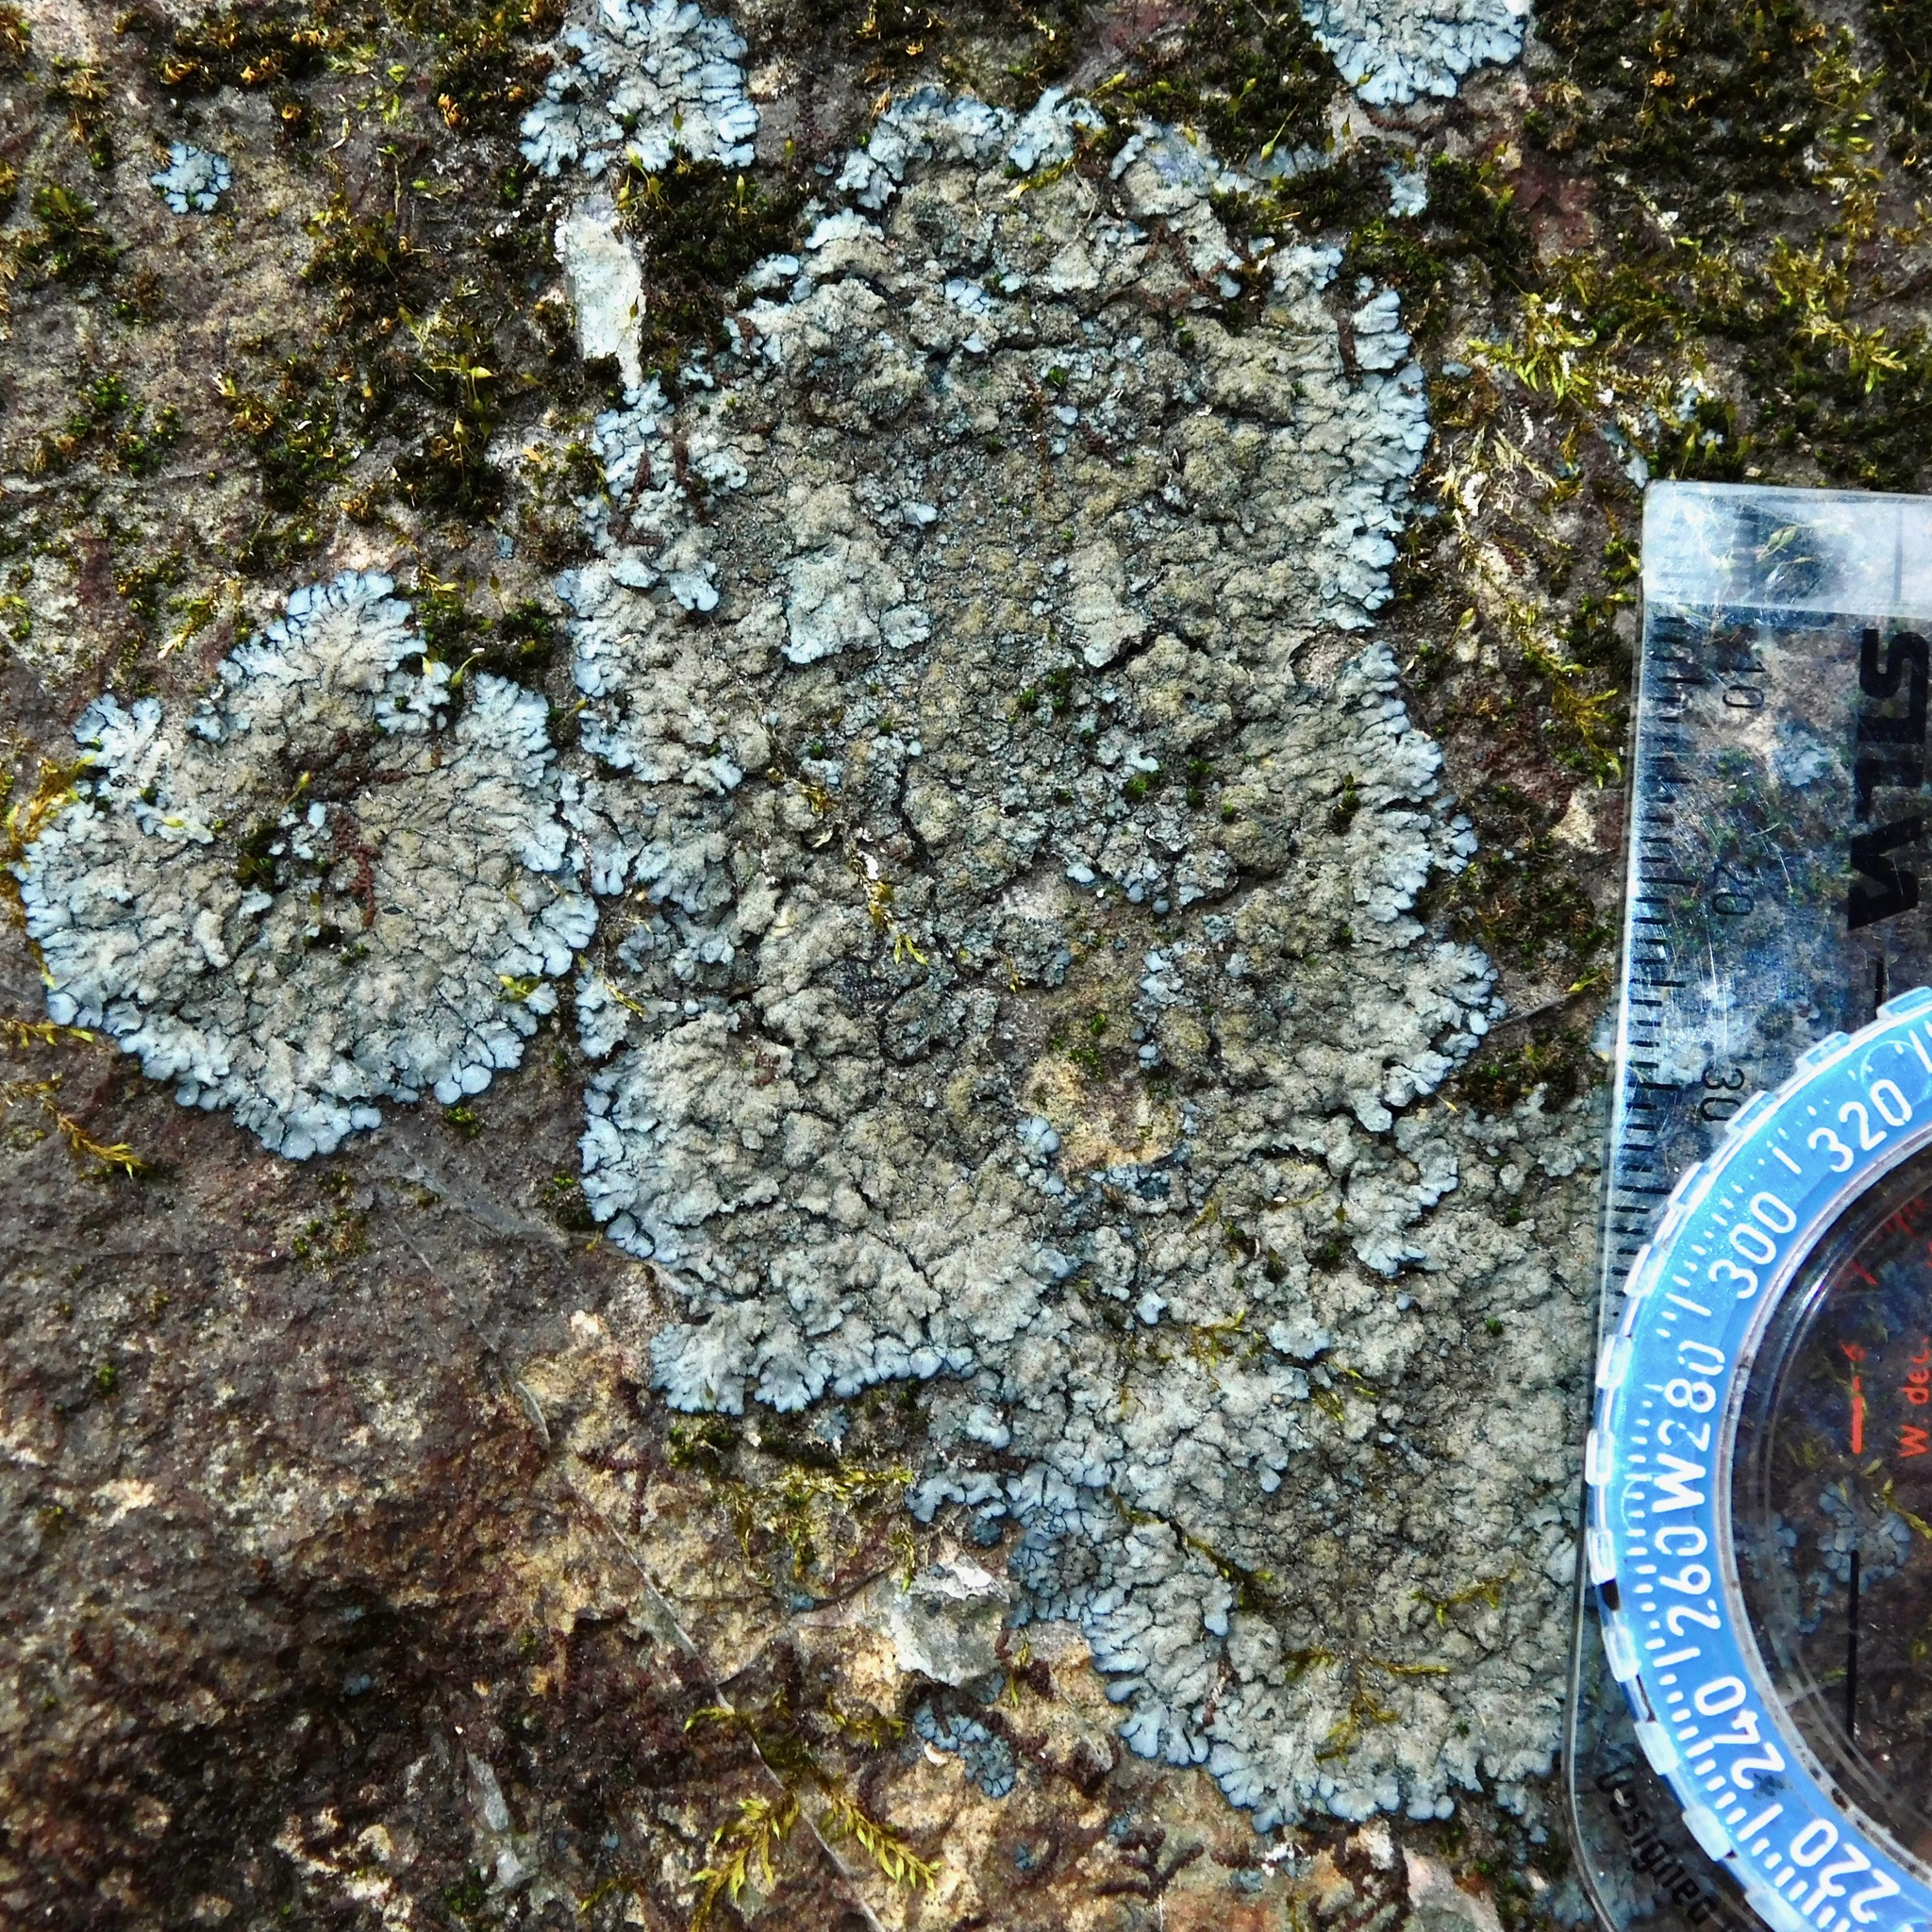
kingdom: Fungi
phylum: Ascomycota
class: Lecanoromycetes
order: Peltigerales
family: Coccocarpiaceae
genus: Coccocarpia
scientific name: Coccocarpia palmicola
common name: Salted shell lichen
